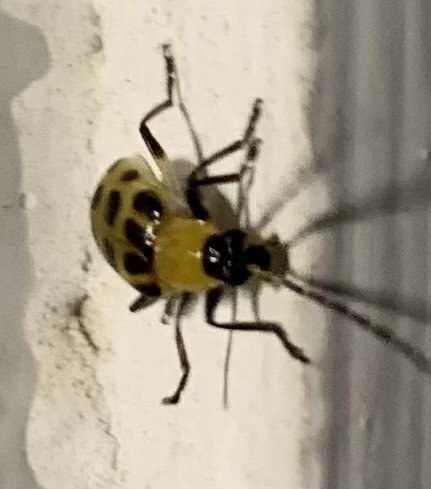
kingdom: Animalia
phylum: Arthropoda
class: Insecta
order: Coleoptera
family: Chrysomelidae
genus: Diabrotica
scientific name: Diabrotica undecimpunctata
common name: Spotted cucumber beetle
